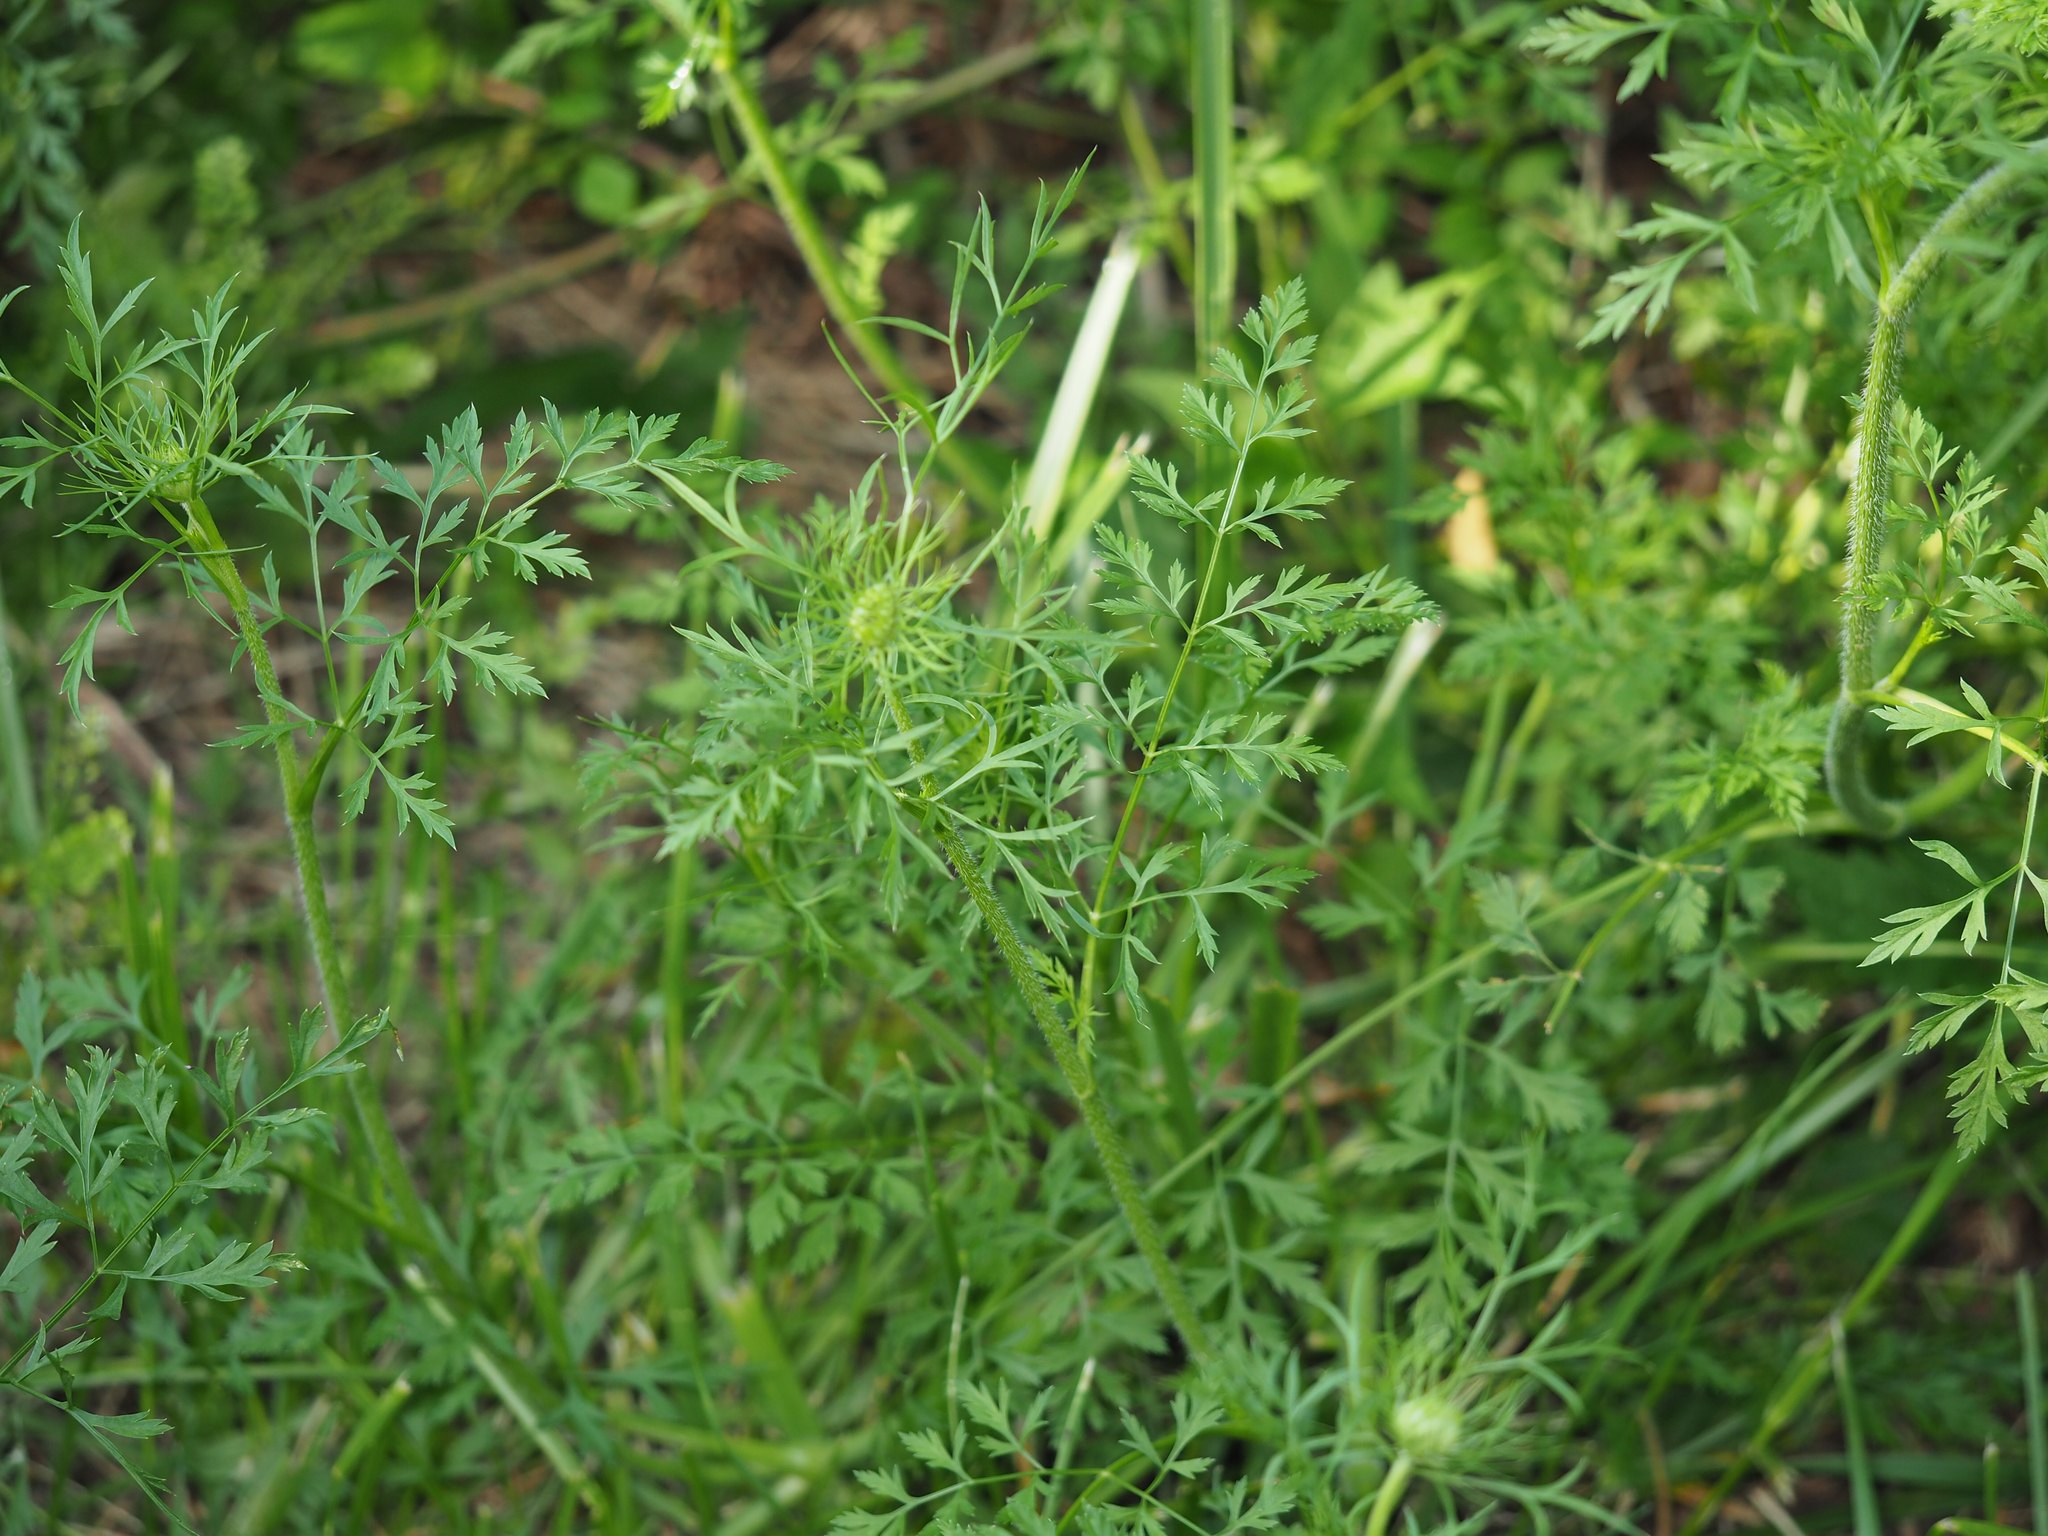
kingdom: Plantae
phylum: Tracheophyta
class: Magnoliopsida
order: Apiales
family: Apiaceae
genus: Daucus
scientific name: Daucus carota
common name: Wild carrot
